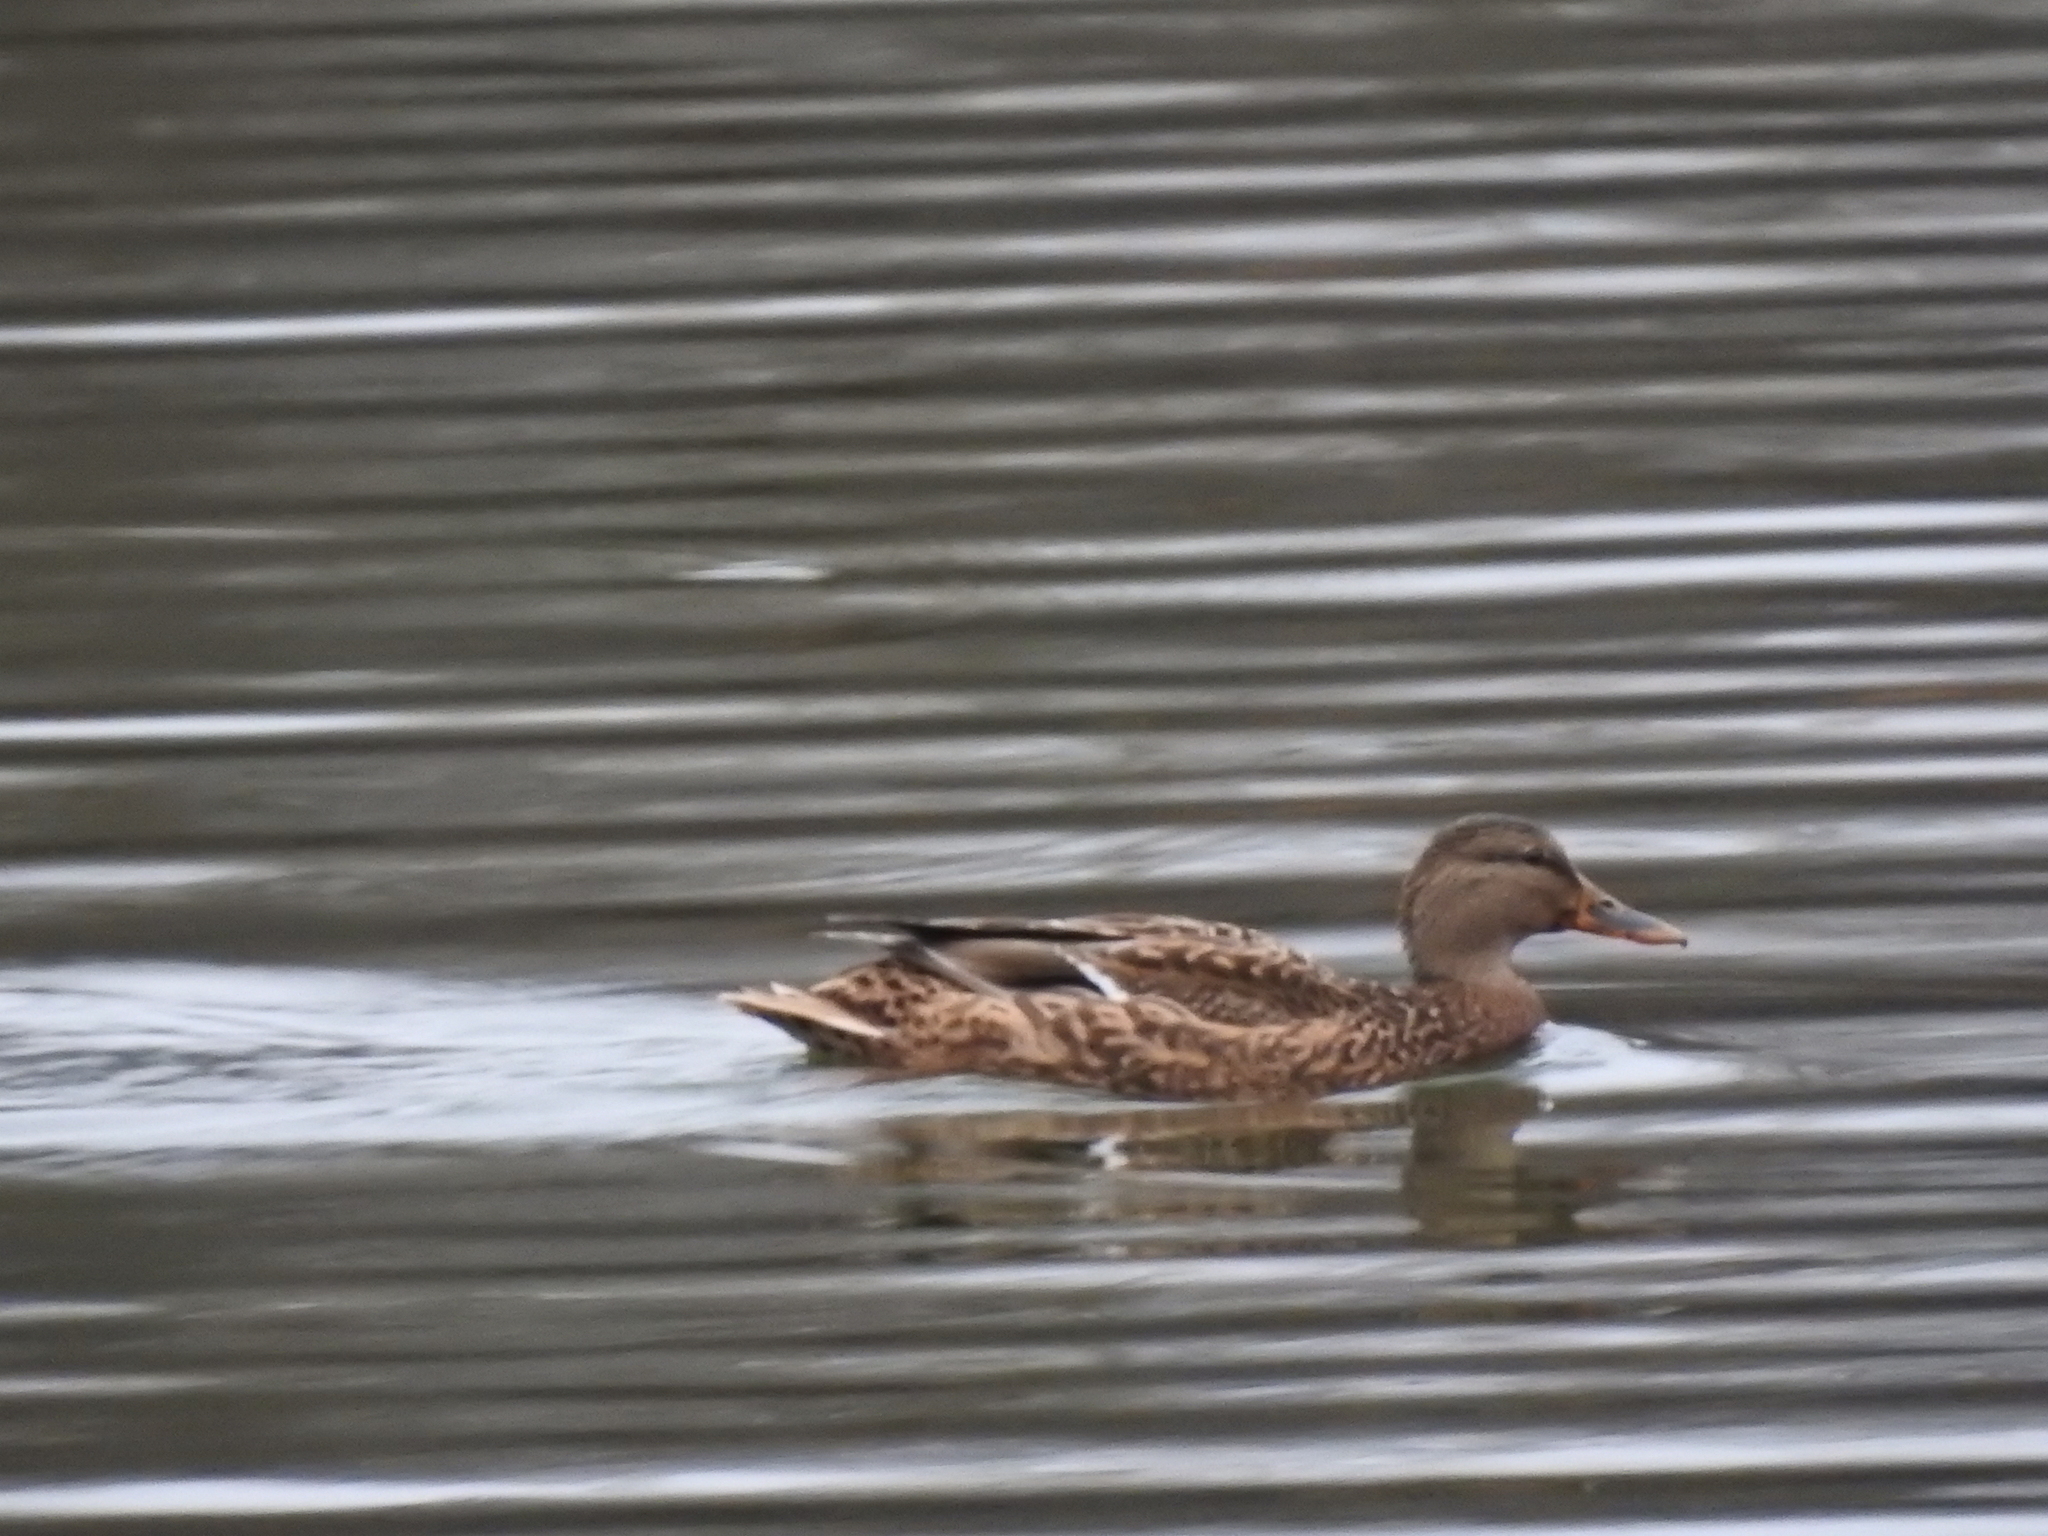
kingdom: Animalia
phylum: Chordata
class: Aves
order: Anseriformes
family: Anatidae
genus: Anas
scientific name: Anas platyrhynchos
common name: Mallard
